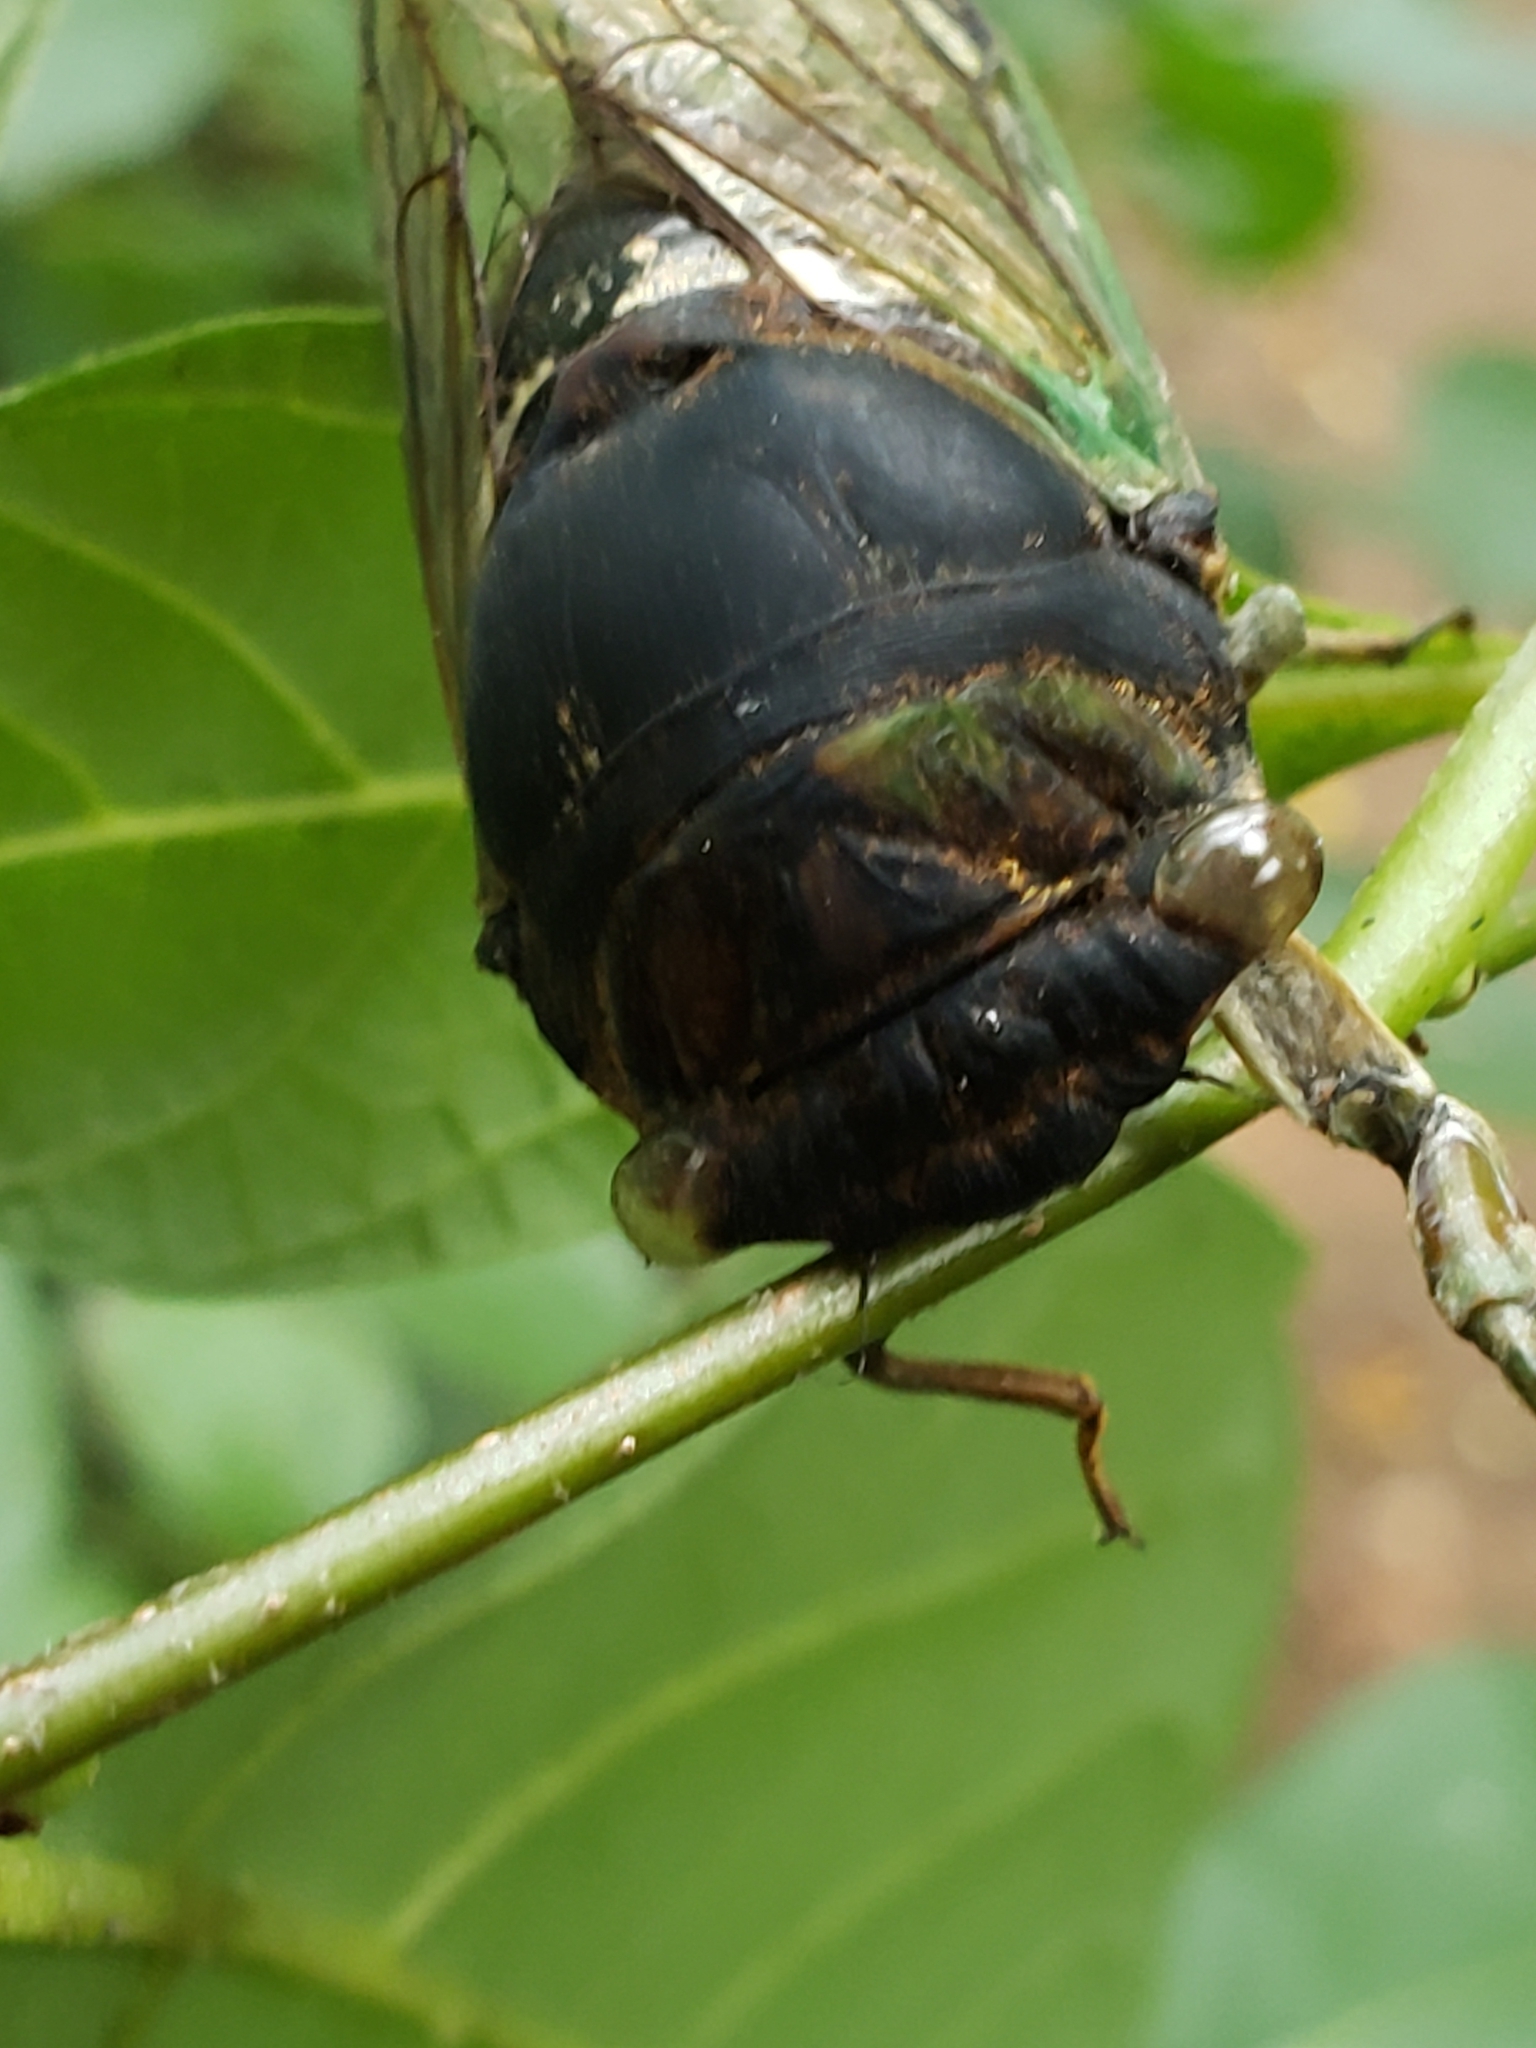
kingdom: Animalia
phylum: Arthropoda
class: Insecta
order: Hemiptera
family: Cicadidae
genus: Neotibicen
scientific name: Neotibicen tibicen
